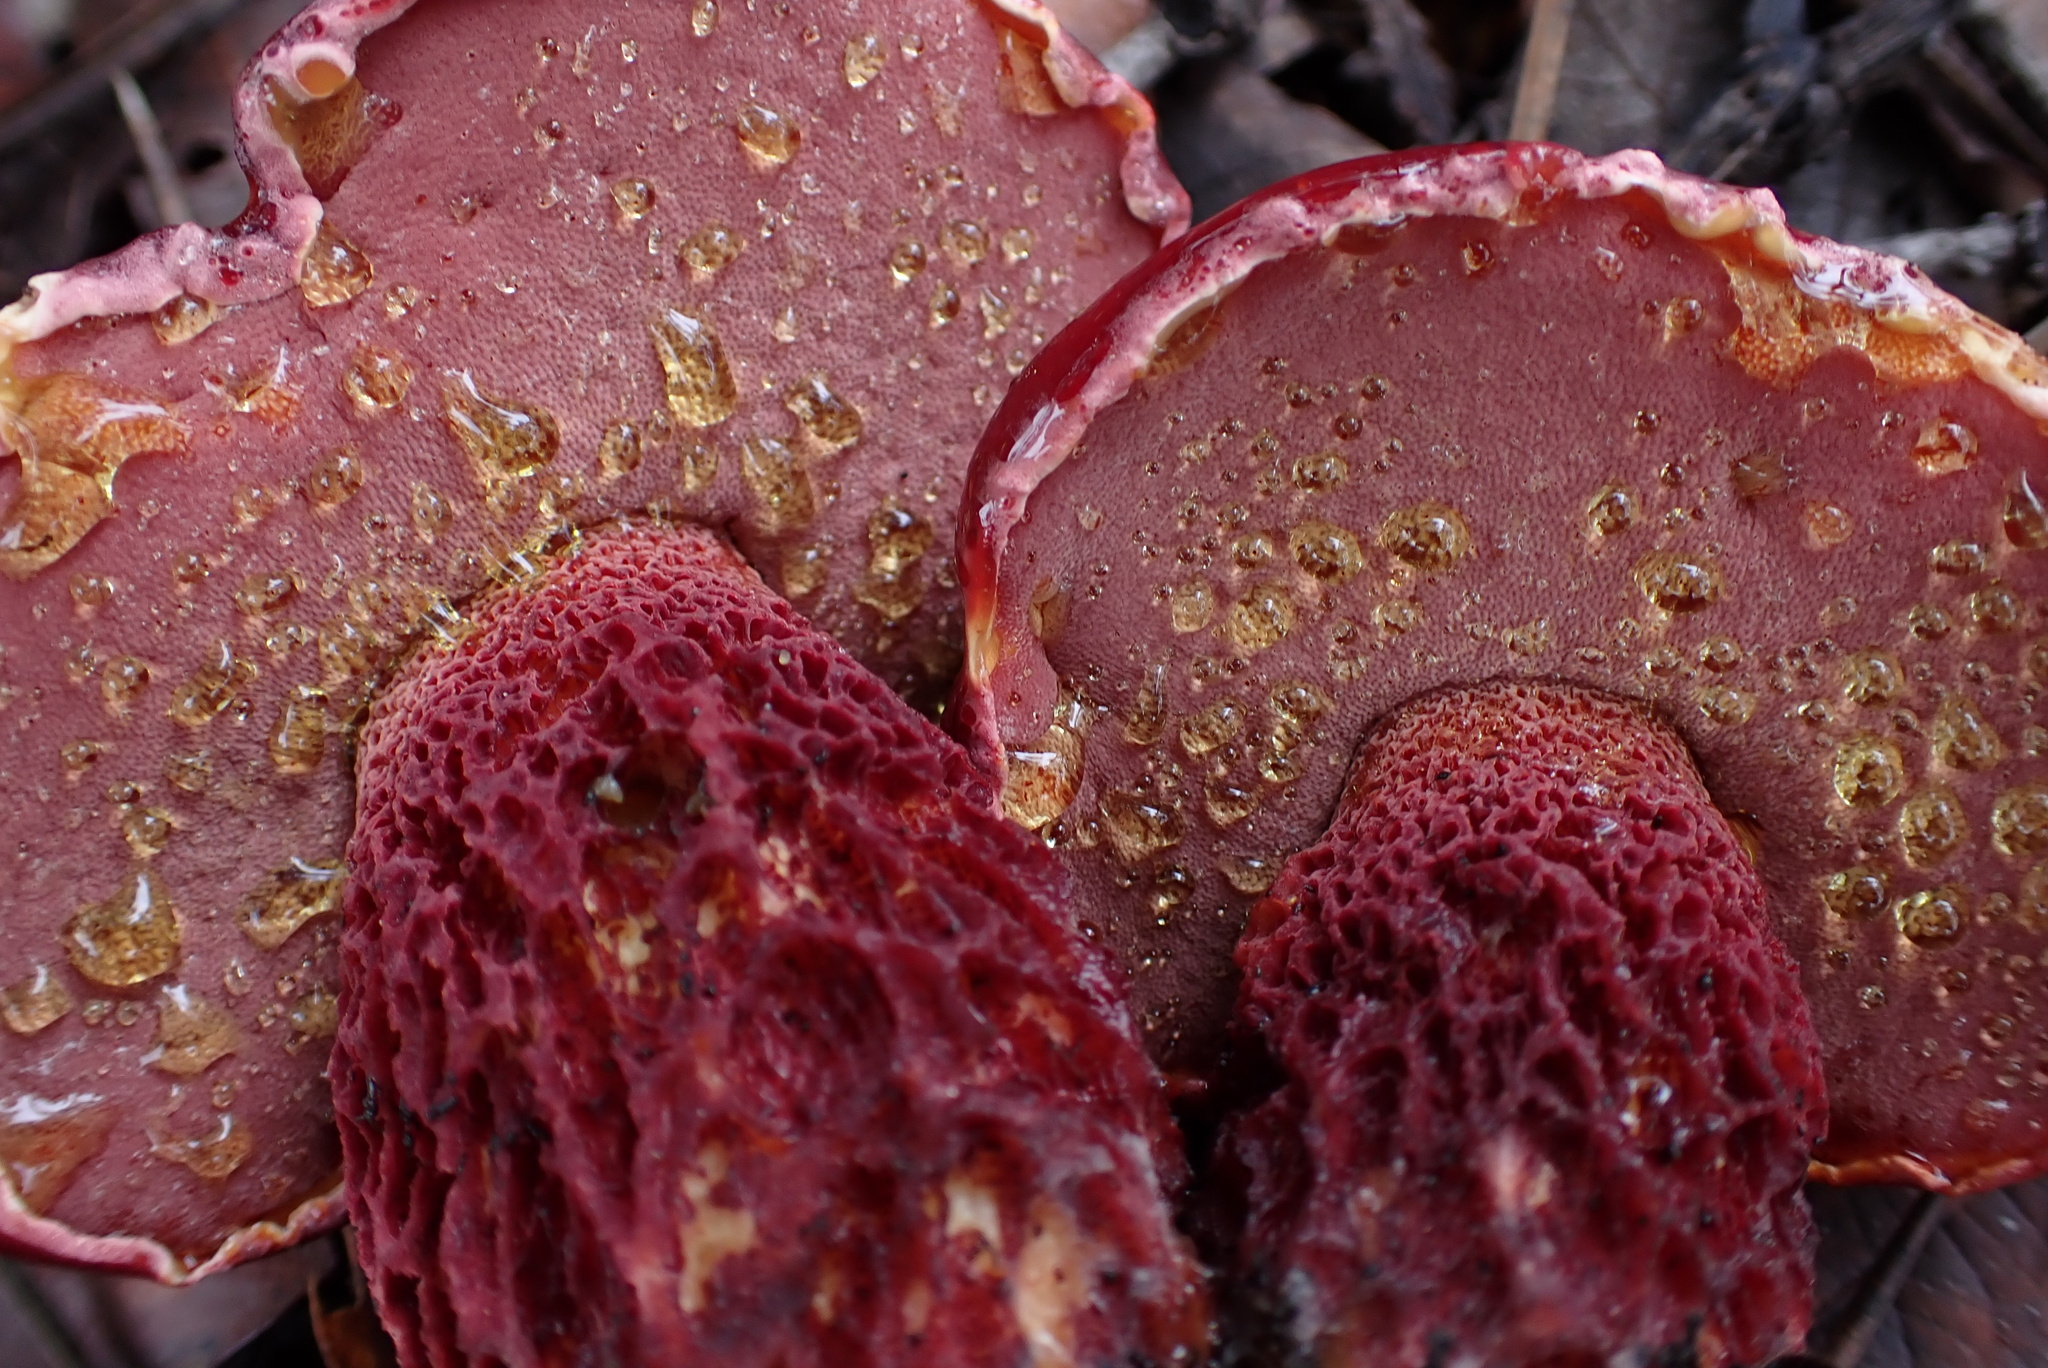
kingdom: Fungi
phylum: Basidiomycota
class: Agaricomycetes
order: Boletales
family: Boletaceae
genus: Butyriboletus
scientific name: Butyriboletus frostii
